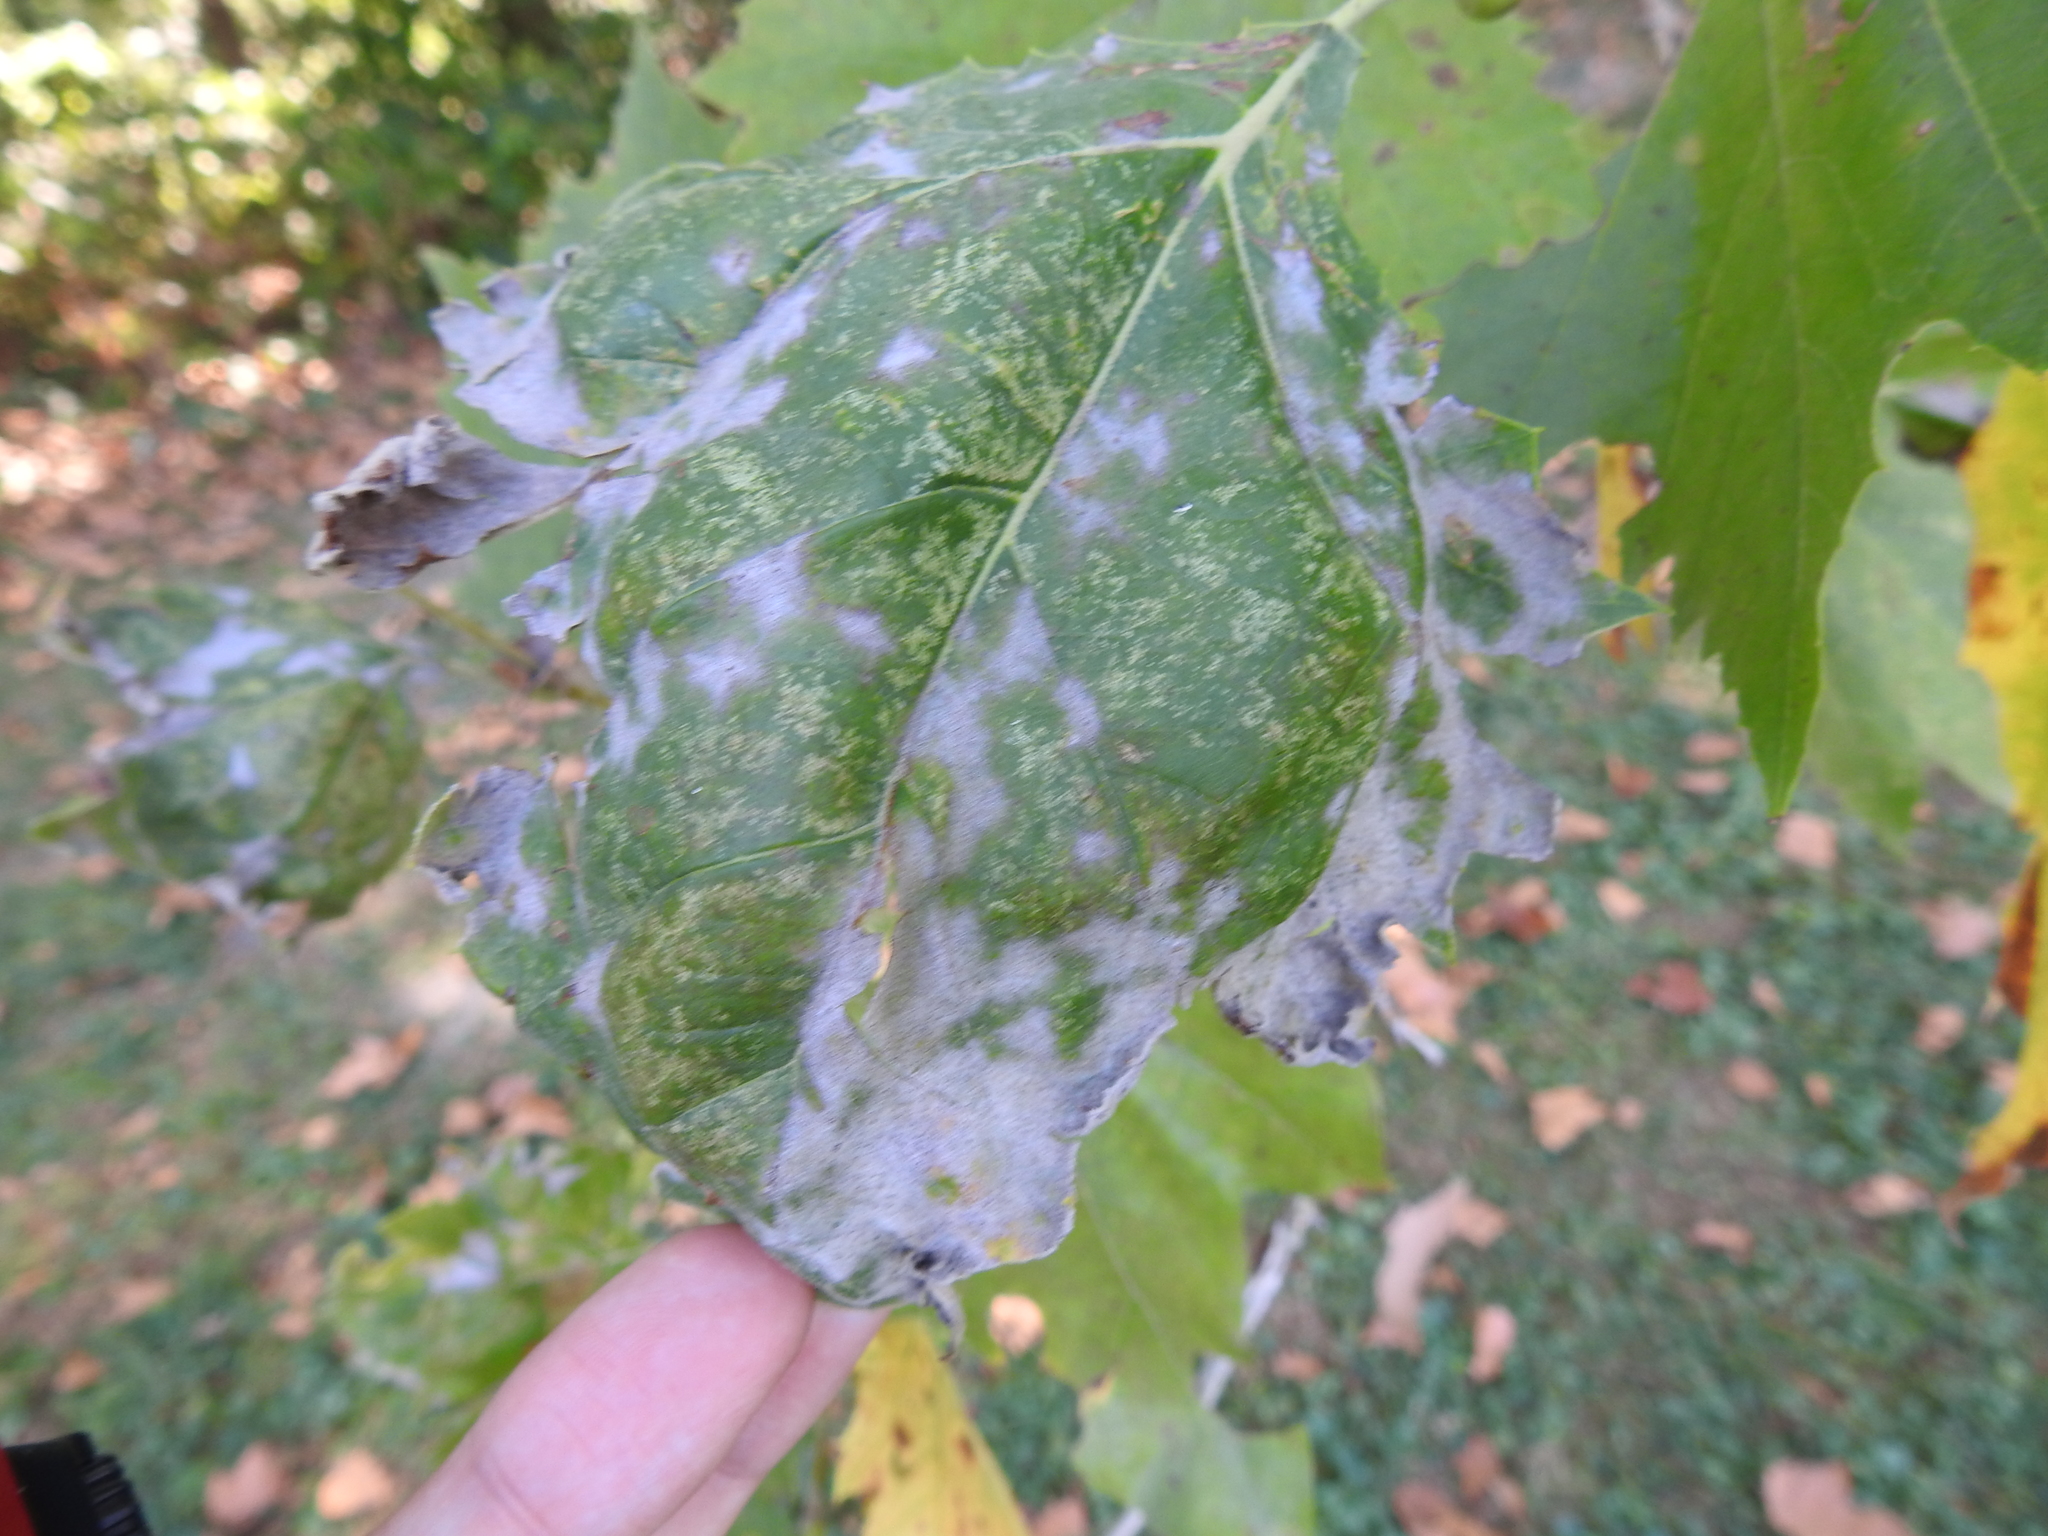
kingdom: Fungi
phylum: Ascomycota
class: Leotiomycetes
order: Helotiales
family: Erysiphaceae
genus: Erysiphe
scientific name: Erysiphe platani
